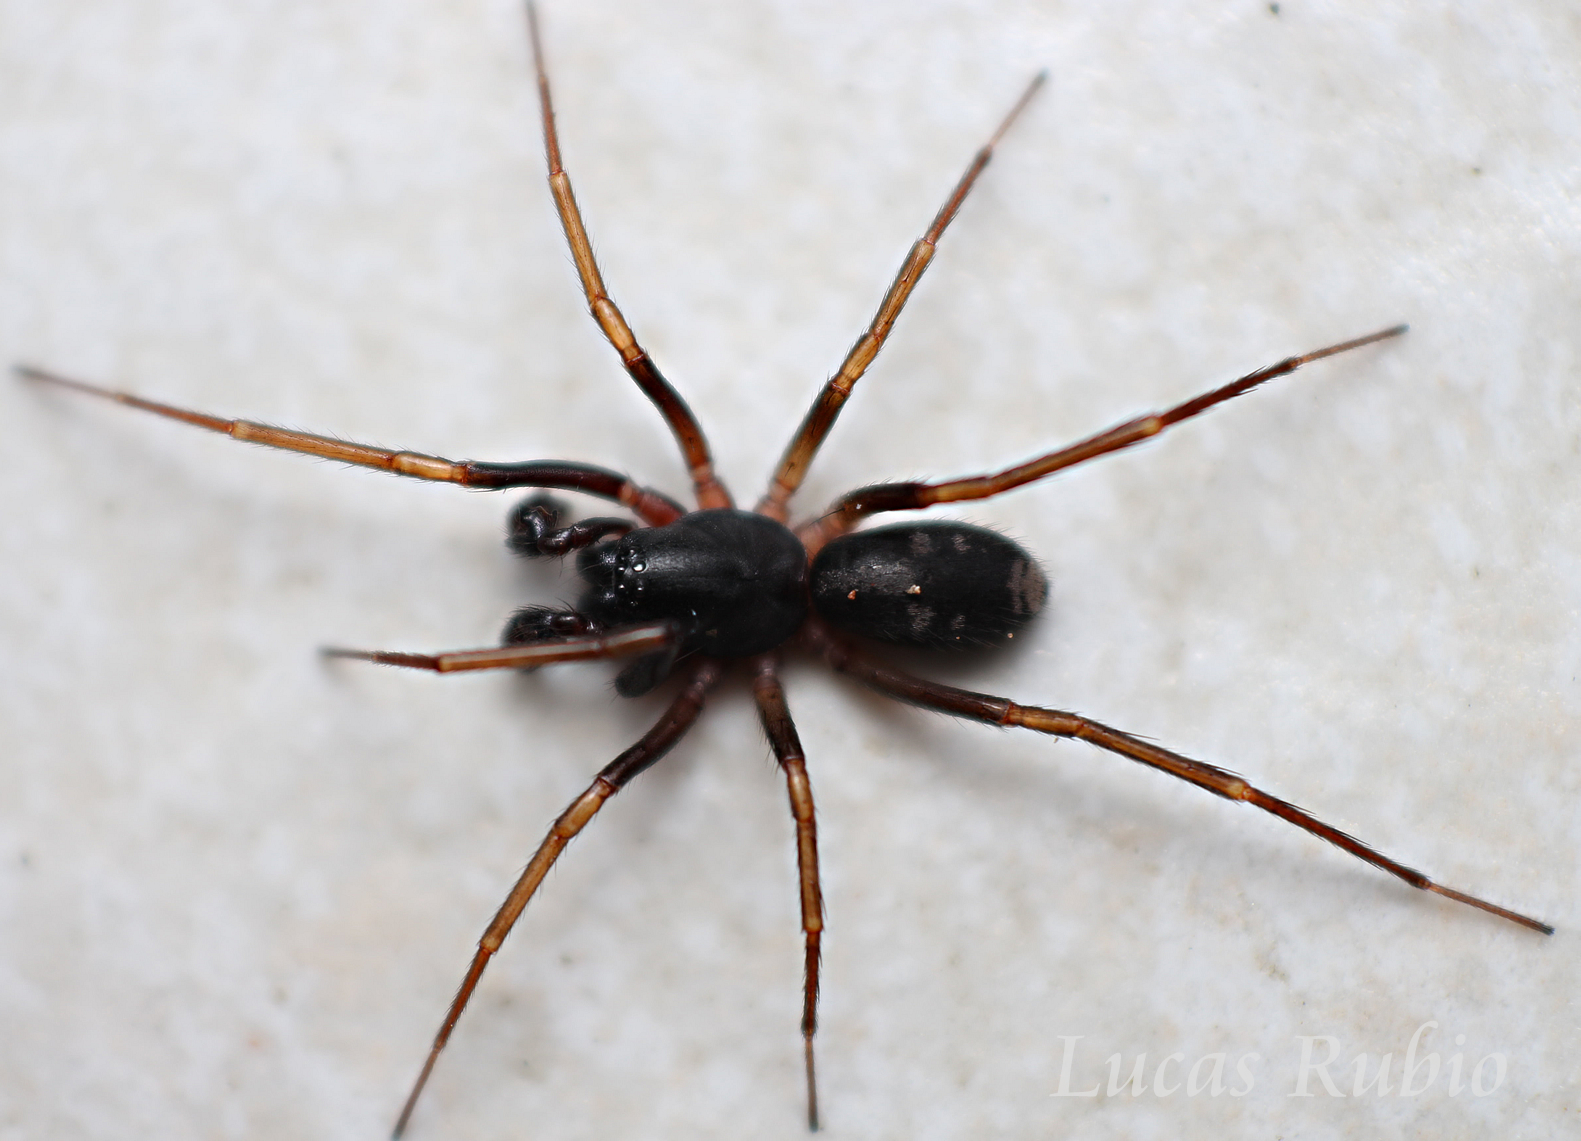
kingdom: Animalia
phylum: Arthropoda
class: Arachnida
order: Araneae
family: Corinnidae
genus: Falconina
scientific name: Falconina gracilis
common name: Antmimic spider
